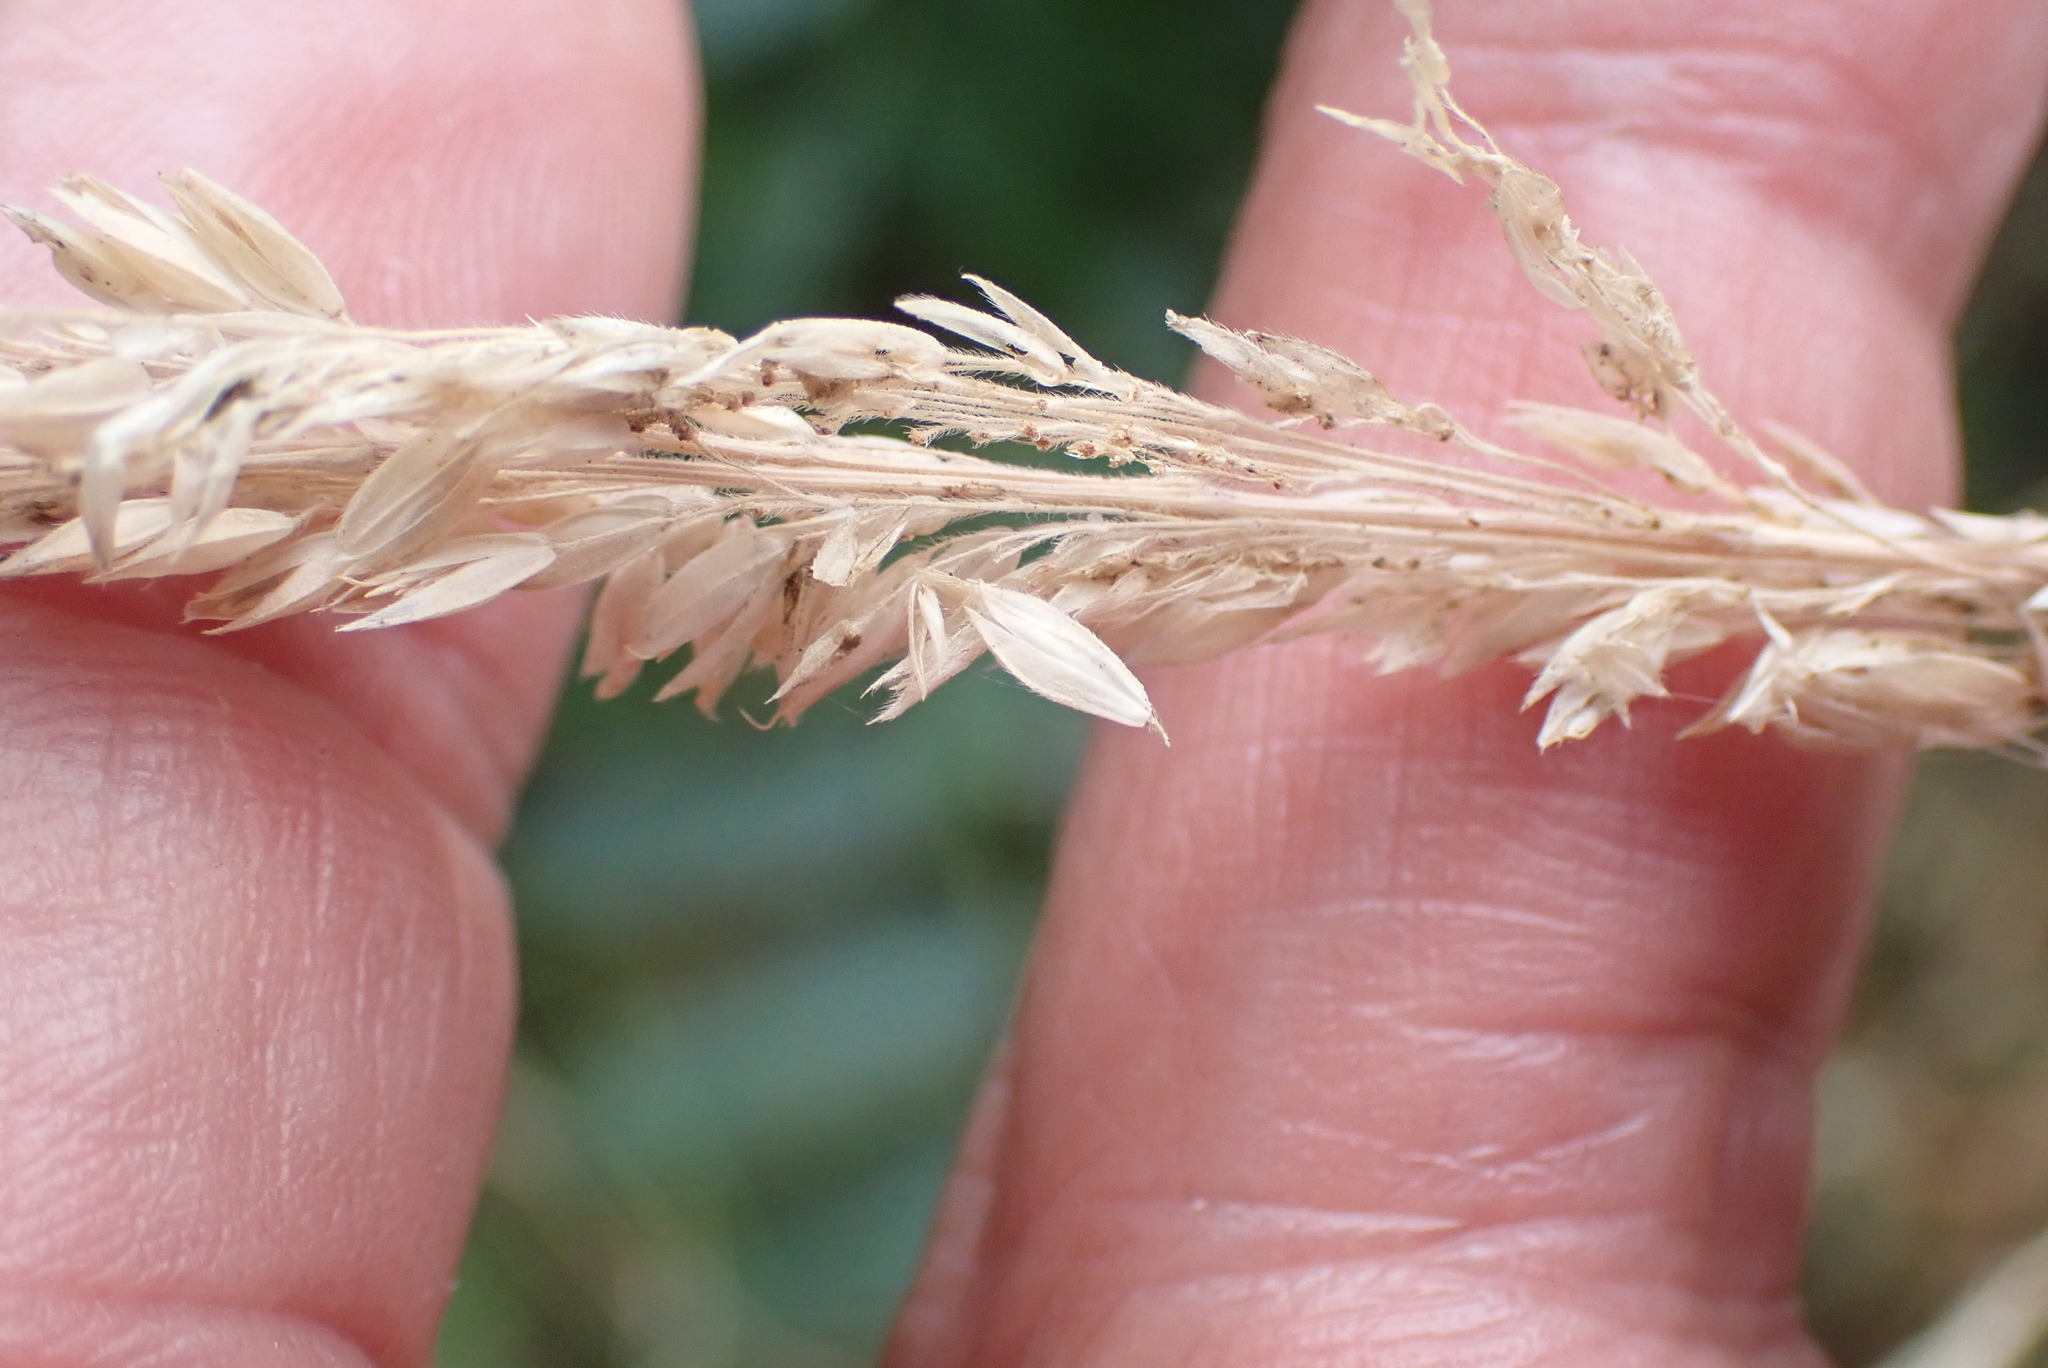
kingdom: Plantae
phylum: Tracheophyta
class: Liliopsida
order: Poales
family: Poaceae
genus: Holcus
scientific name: Holcus lanatus
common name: Yorkshire-fog
